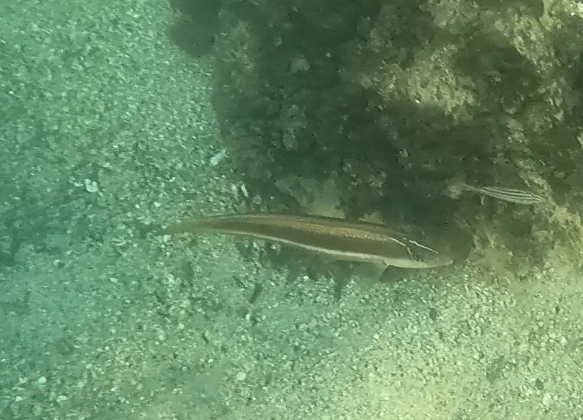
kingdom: Animalia
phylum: Chordata
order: Perciformes
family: Labridae
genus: Ophthalmolepis
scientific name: Ophthalmolepis lineolata
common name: Maori wrasse
